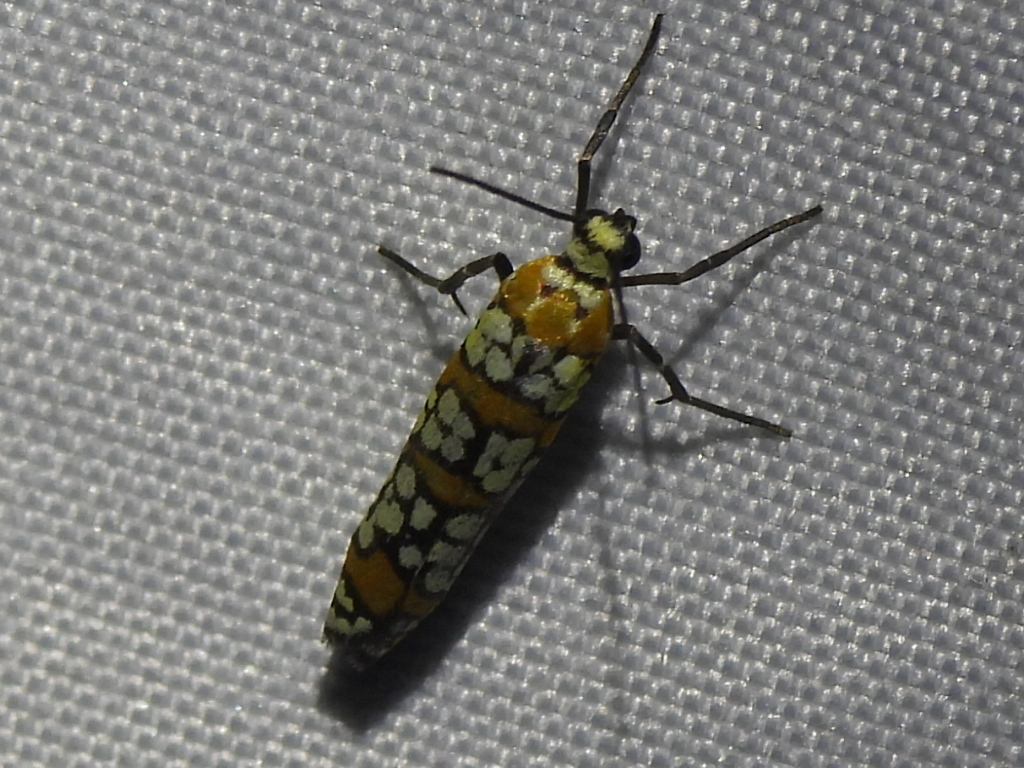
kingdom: Animalia
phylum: Arthropoda
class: Insecta
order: Lepidoptera
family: Attevidae
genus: Atteva
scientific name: Atteva punctella
